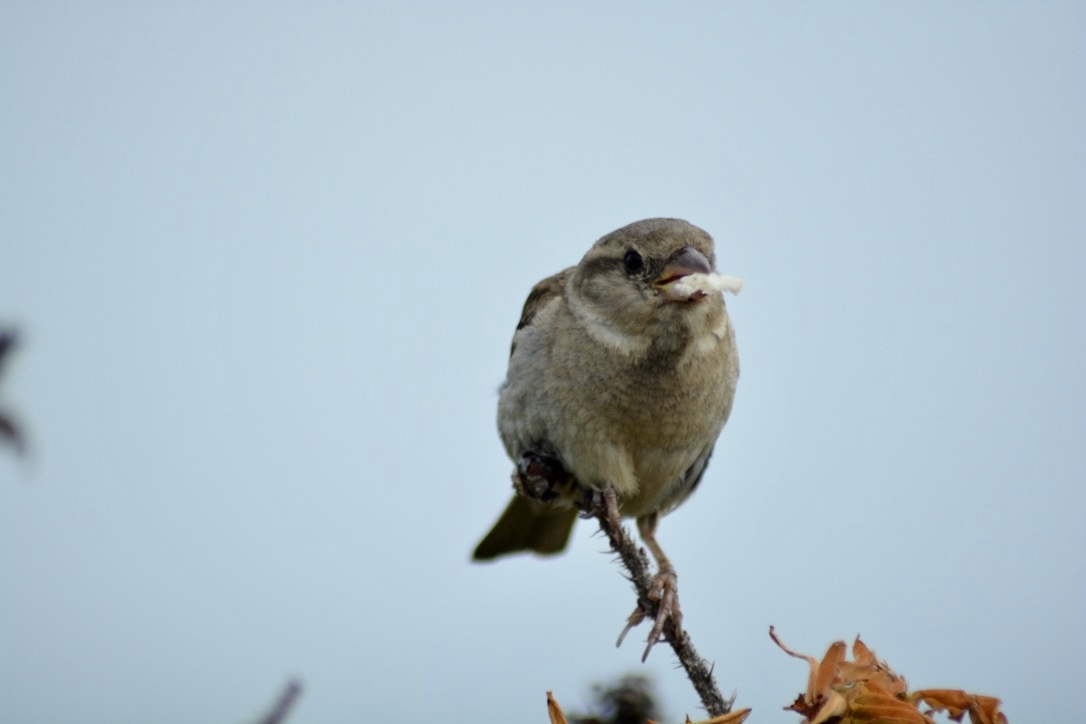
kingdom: Animalia
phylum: Chordata
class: Aves
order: Passeriformes
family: Passeridae
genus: Passer
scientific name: Passer domesticus
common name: House sparrow
